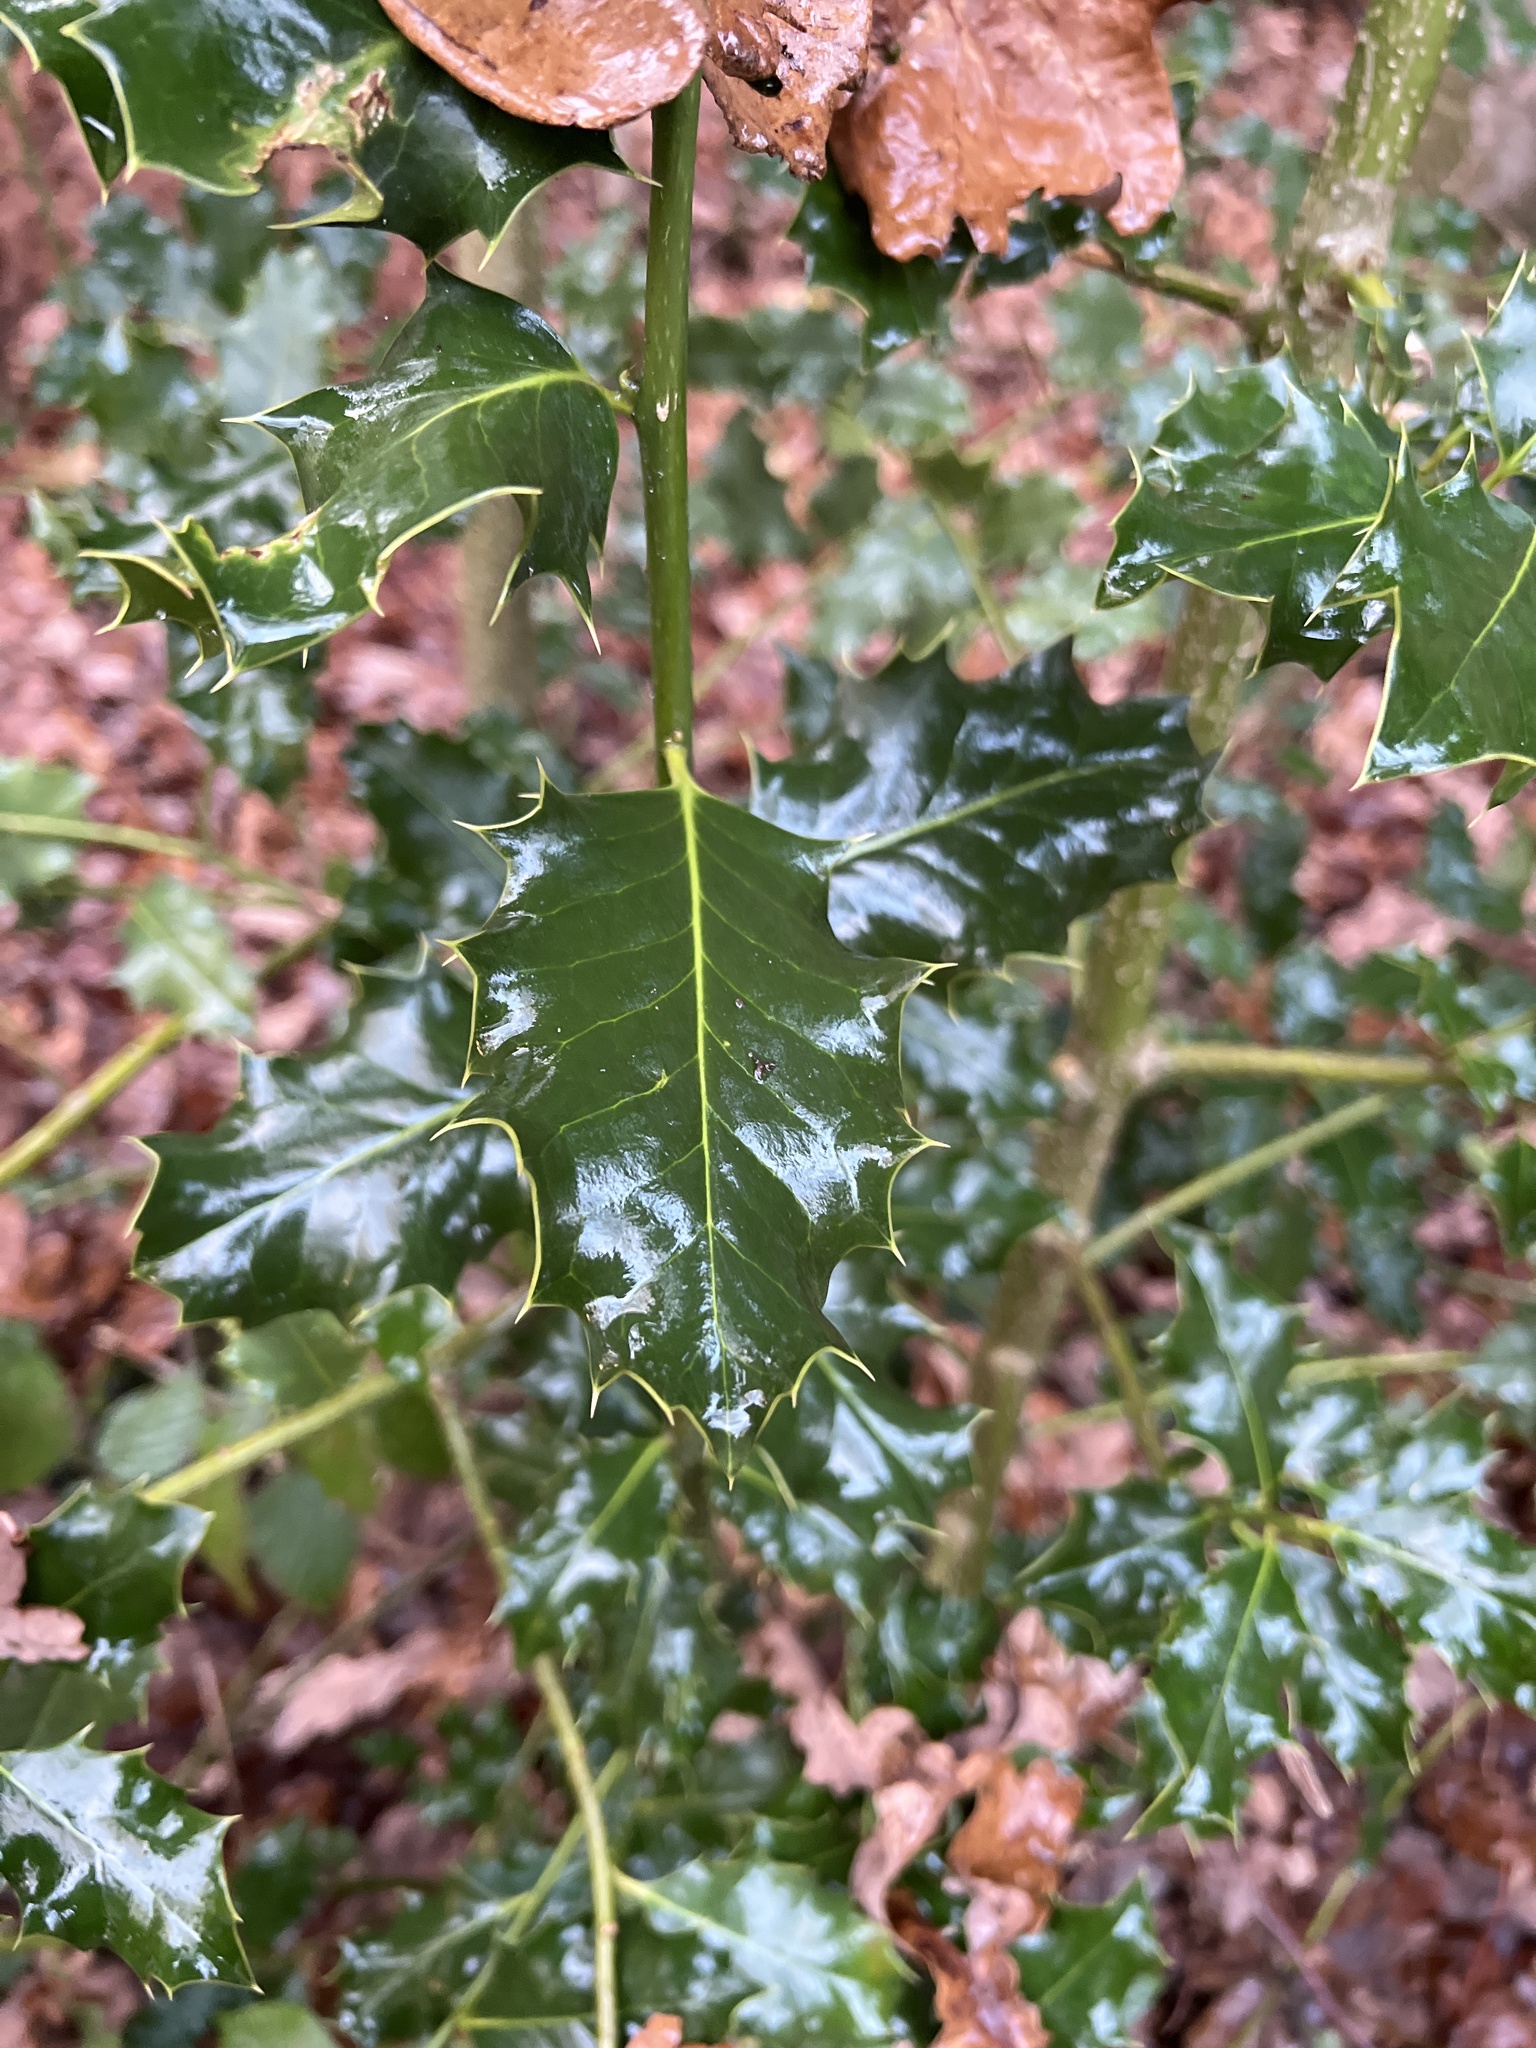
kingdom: Plantae
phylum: Tracheophyta
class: Magnoliopsida
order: Aquifoliales
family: Aquifoliaceae
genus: Ilex
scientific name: Ilex aquifolium
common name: English holly
